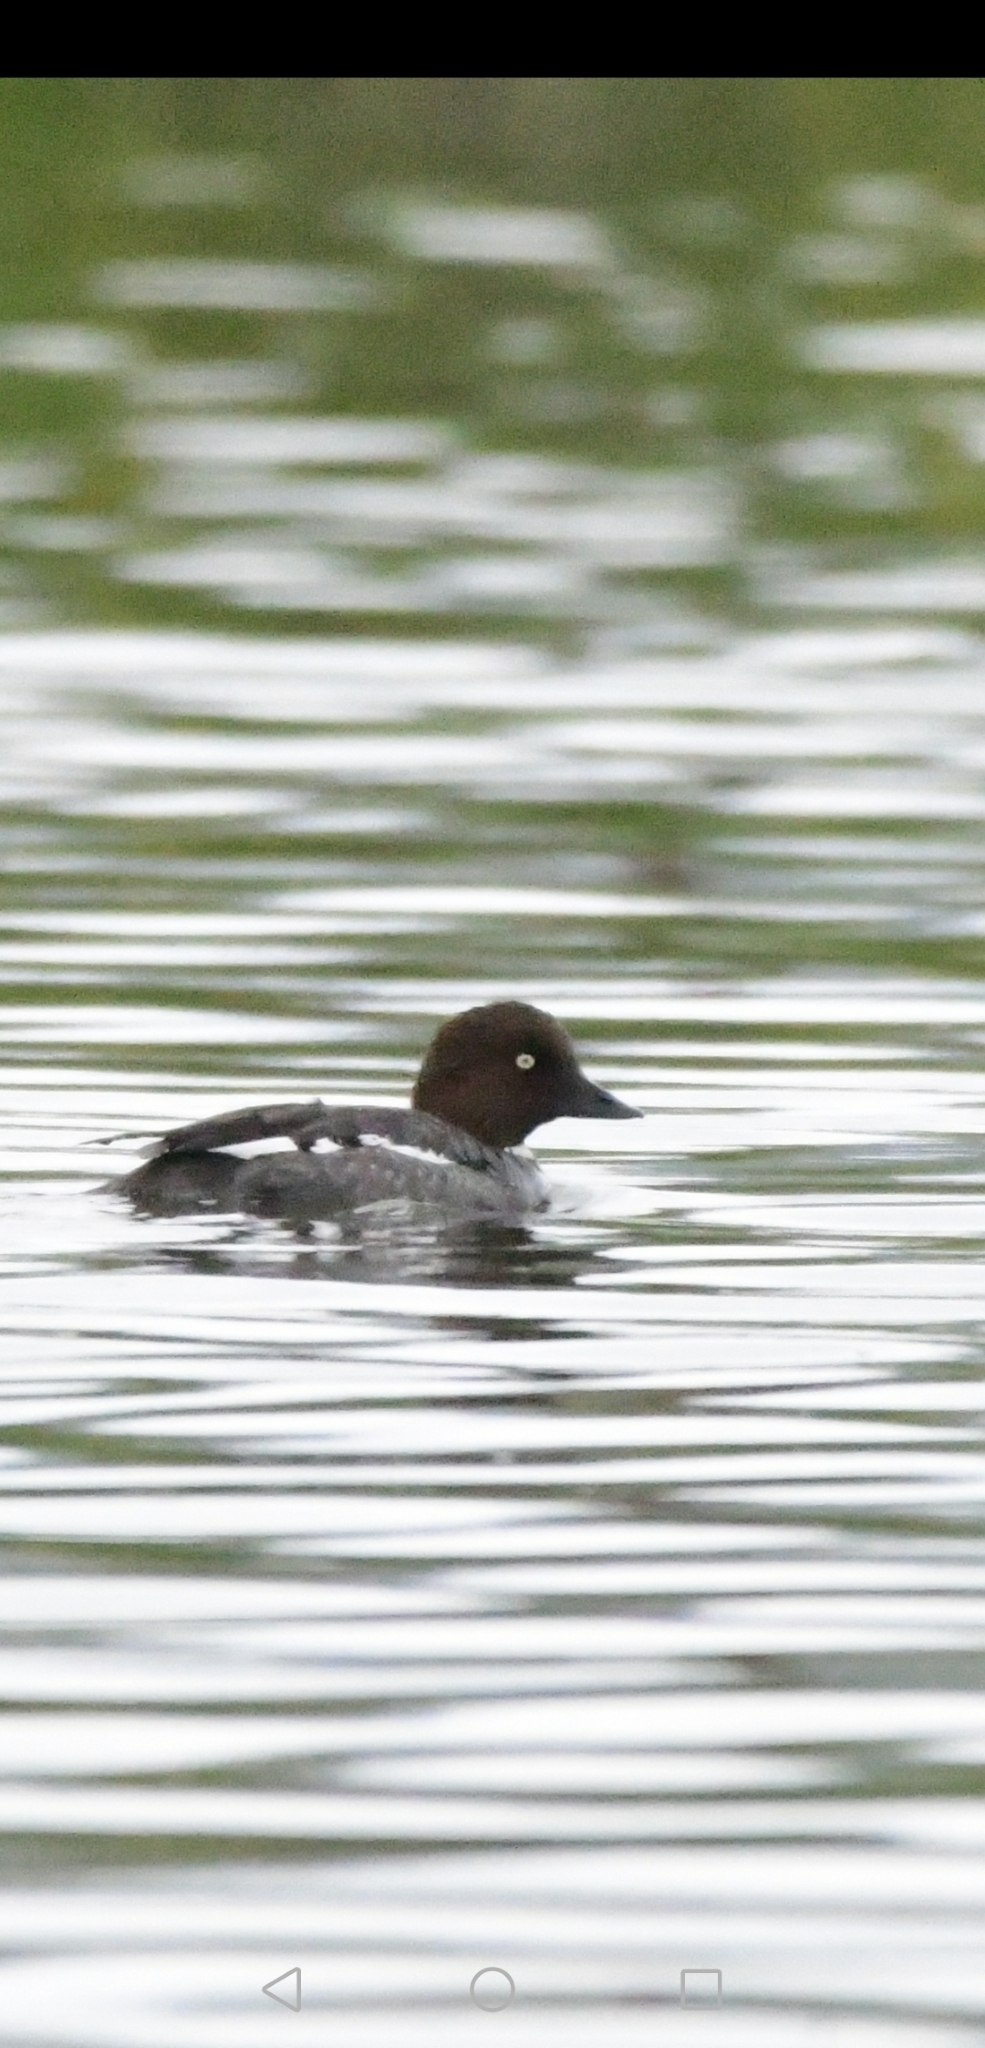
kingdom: Animalia
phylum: Chordata
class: Aves
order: Anseriformes
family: Anatidae
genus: Bucephala
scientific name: Bucephala clangula
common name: Common goldeneye
